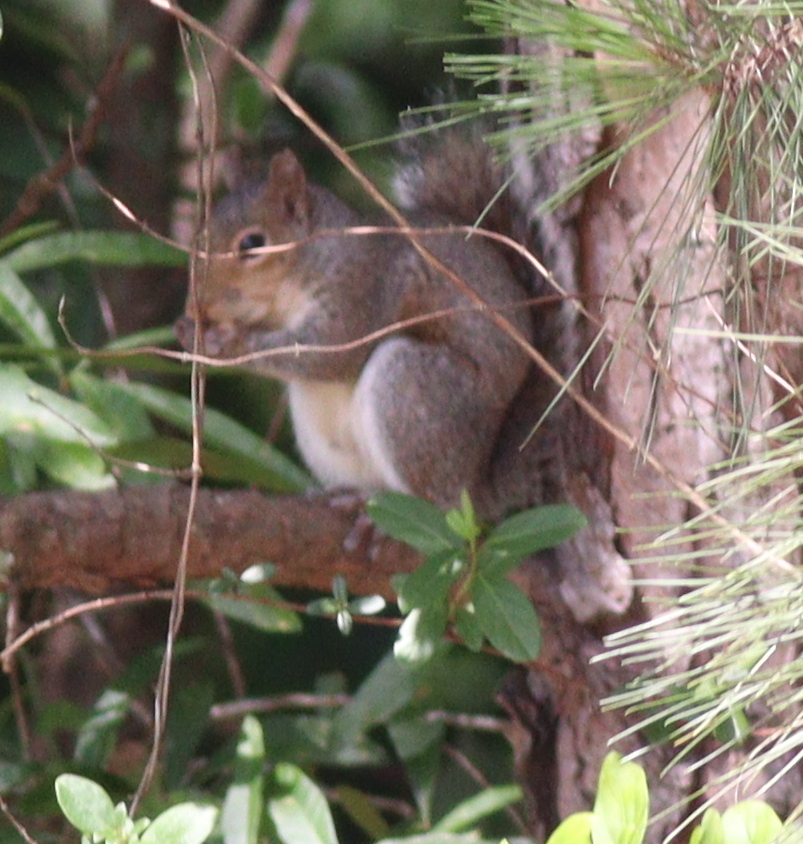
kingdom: Animalia
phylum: Chordata
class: Mammalia
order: Rodentia
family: Sciuridae
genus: Sciurus
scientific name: Sciurus carolinensis
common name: Eastern gray squirrel
